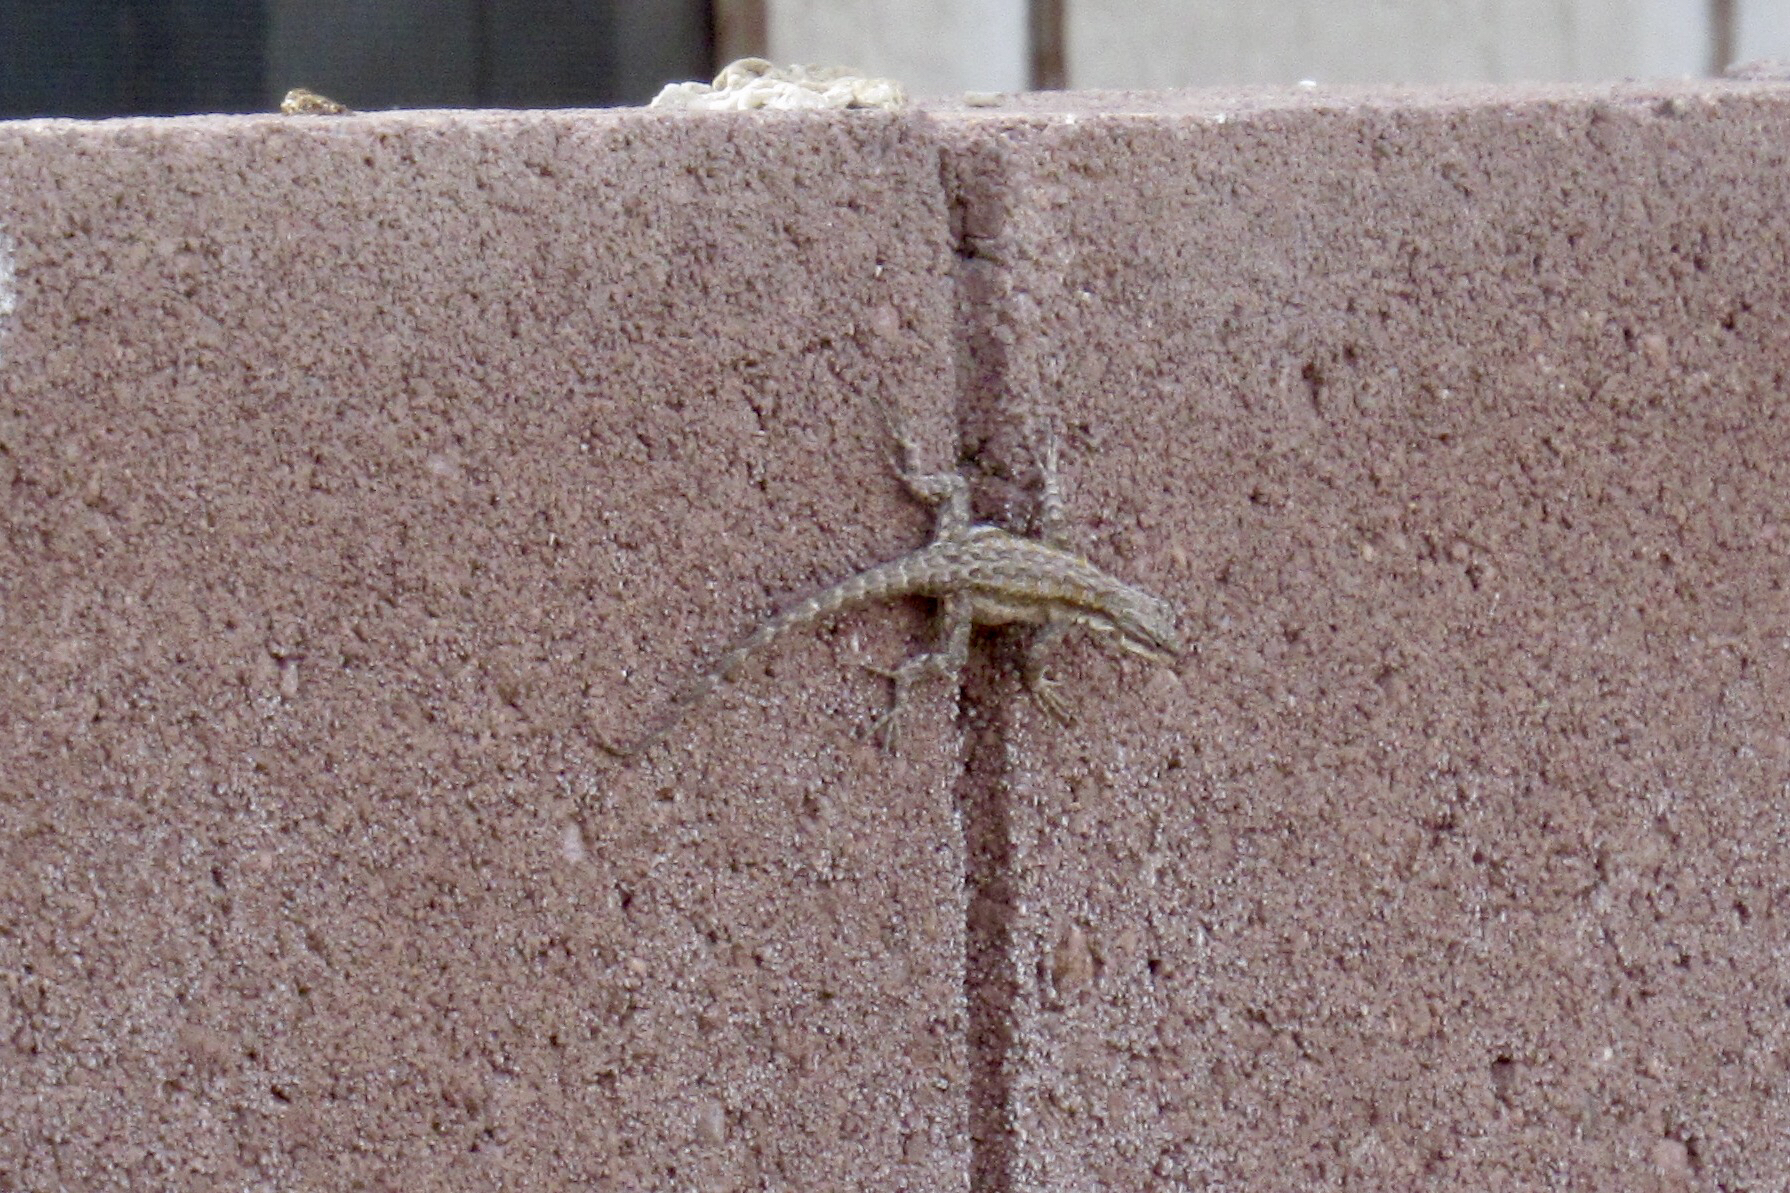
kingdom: Animalia
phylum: Chordata
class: Squamata
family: Phrynosomatidae
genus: Urosaurus
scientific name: Urosaurus ornatus
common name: Ornate tree lizard
